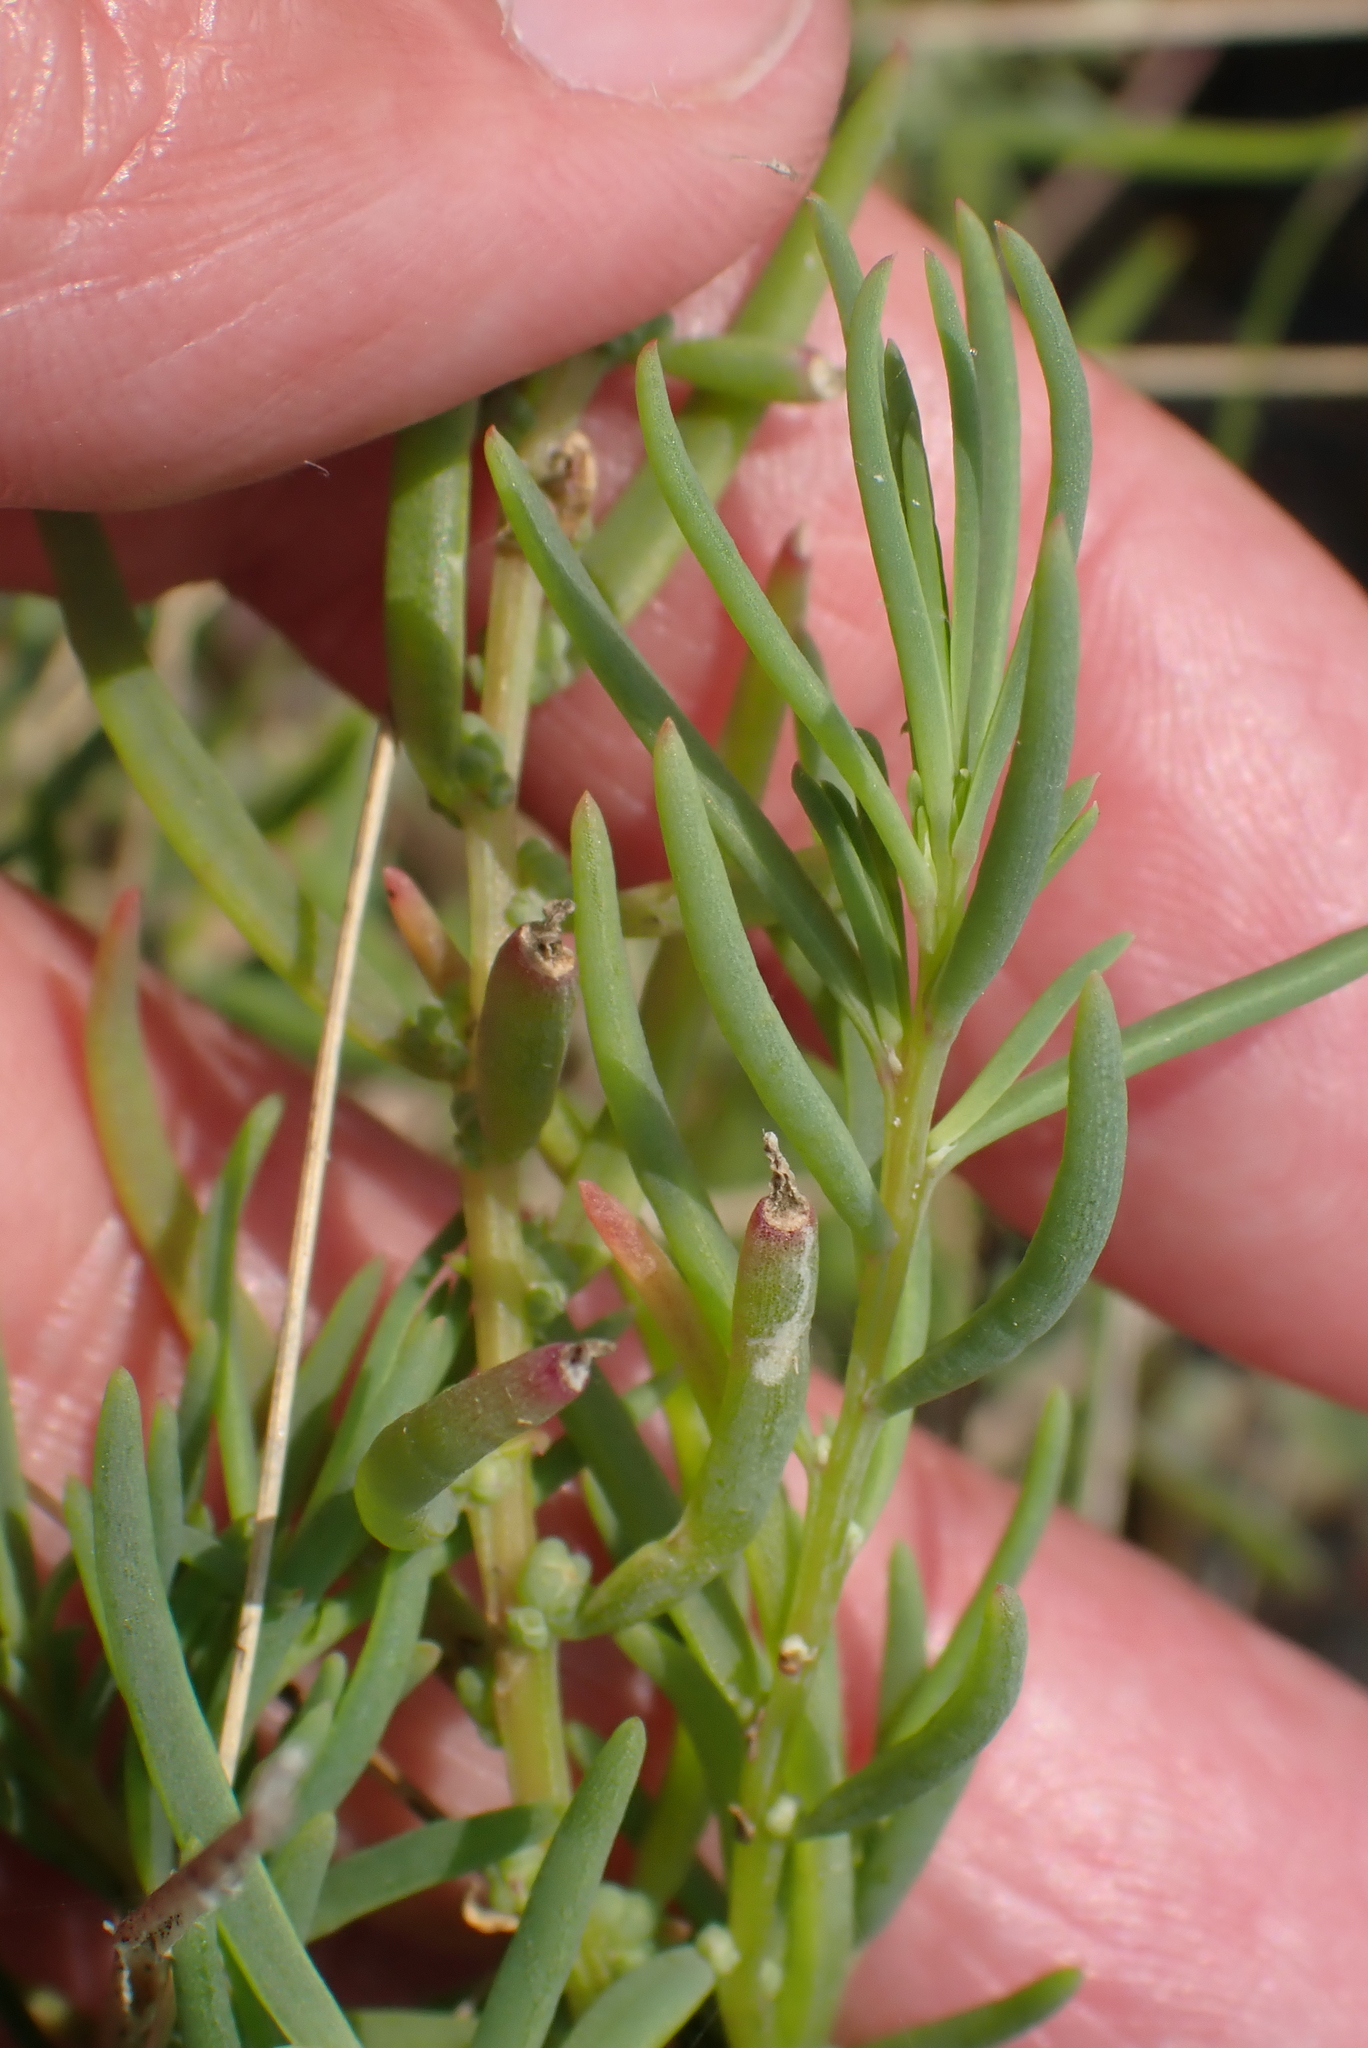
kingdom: Plantae
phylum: Tracheophyta
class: Magnoliopsida
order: Caryophyllales
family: Amaranthaceae
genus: Suaeda
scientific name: Suaeda maritima
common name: Annual sea-blite
